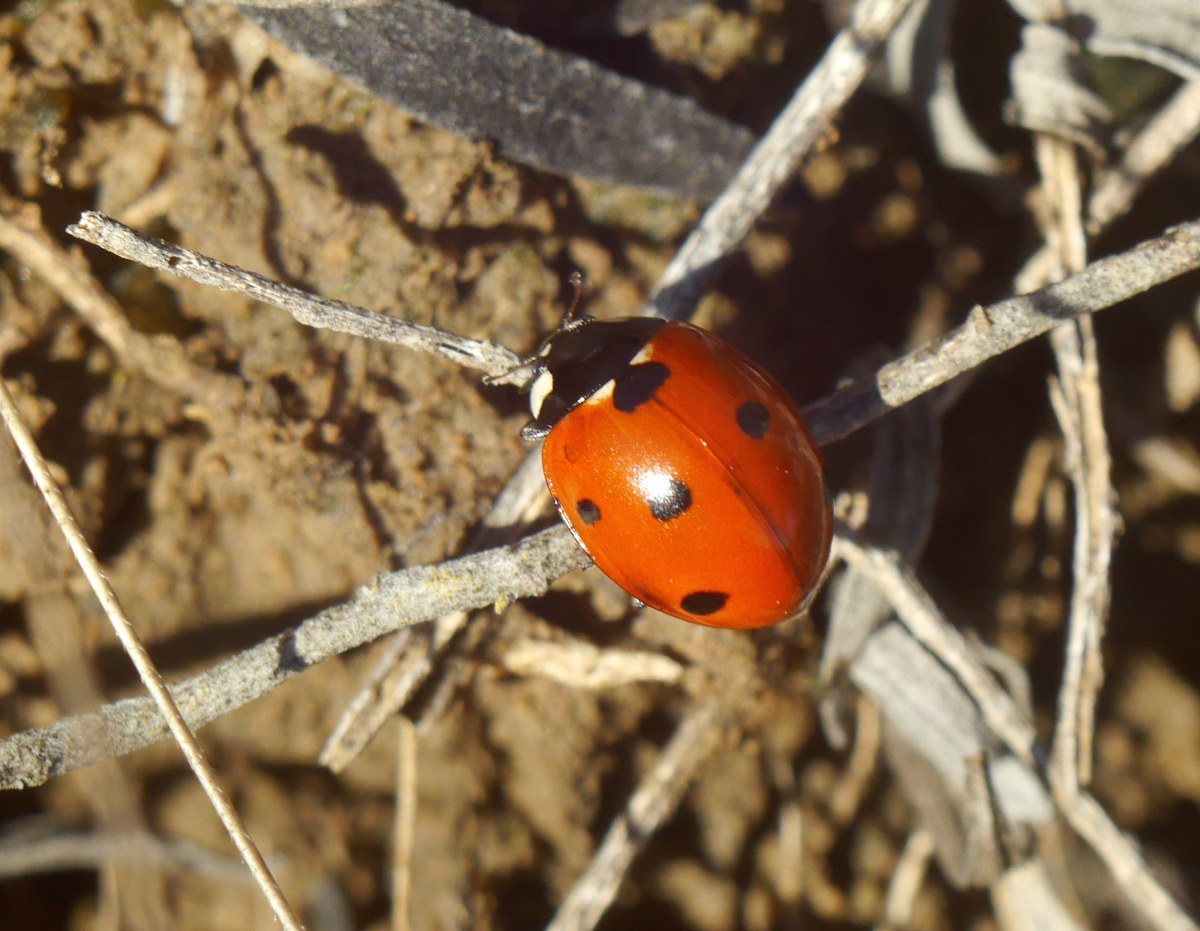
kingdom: Animalia
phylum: Arthropoda
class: Insecta
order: Coleoptera
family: Coccinellidae
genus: Coccinella
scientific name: Coccinella septempunctata
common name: Sevenspotted lady beetle
